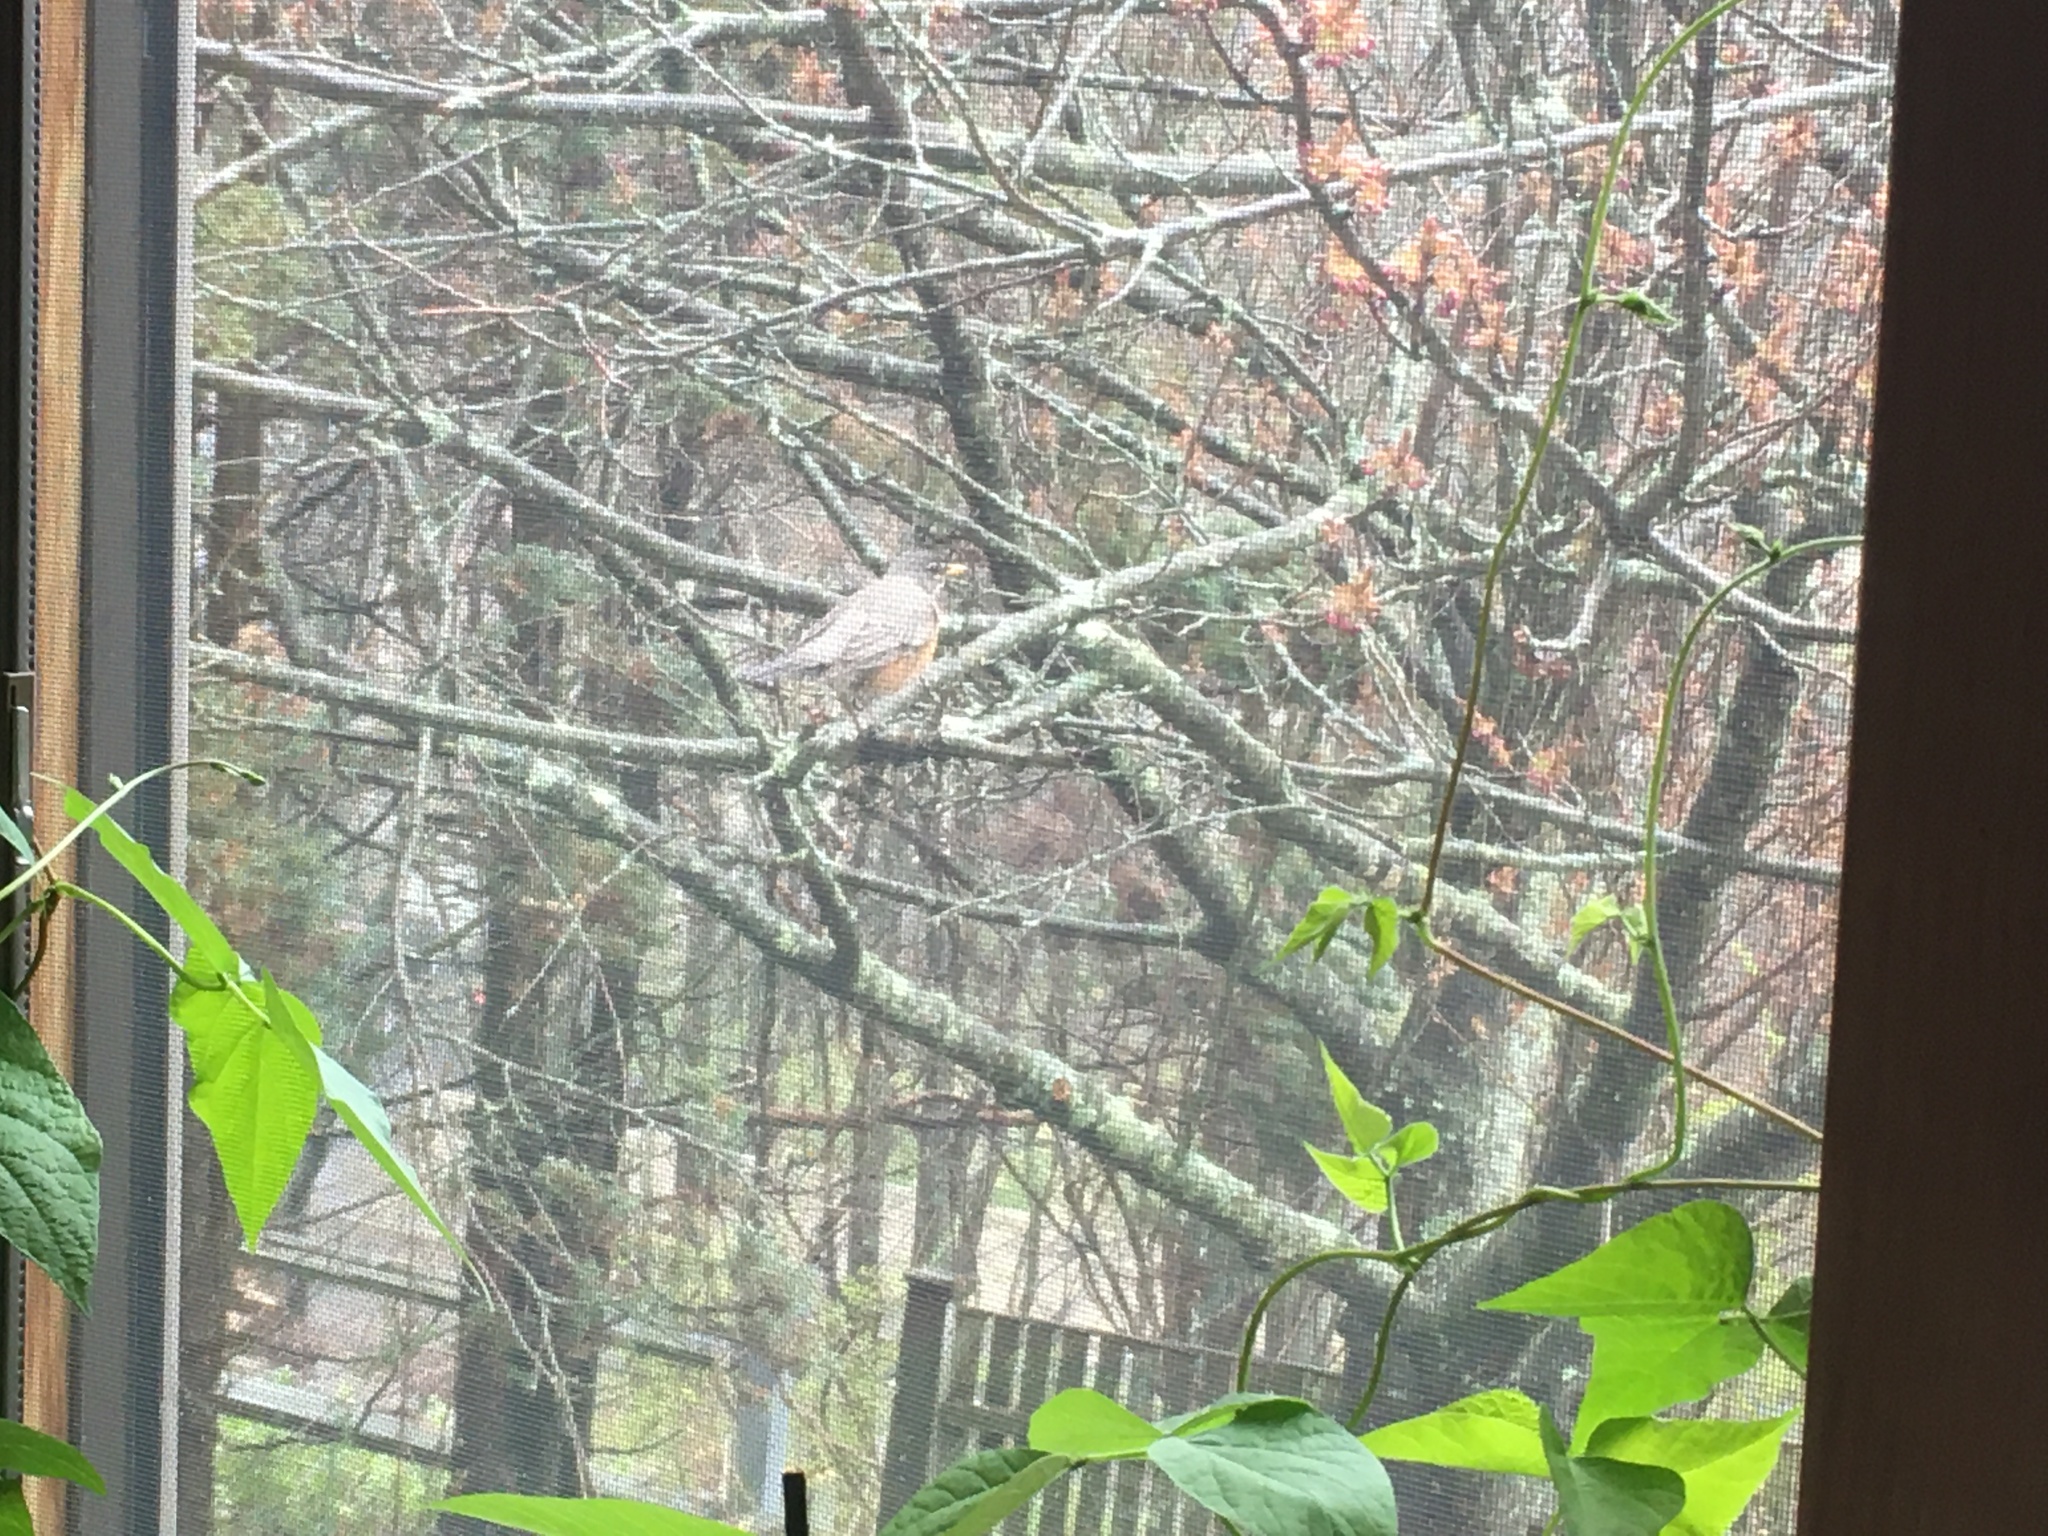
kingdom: Animalia
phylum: Chordata
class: Aves
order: Passeriformes
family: Turdidae
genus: Turdus
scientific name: Turdus migratorius
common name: American robin
